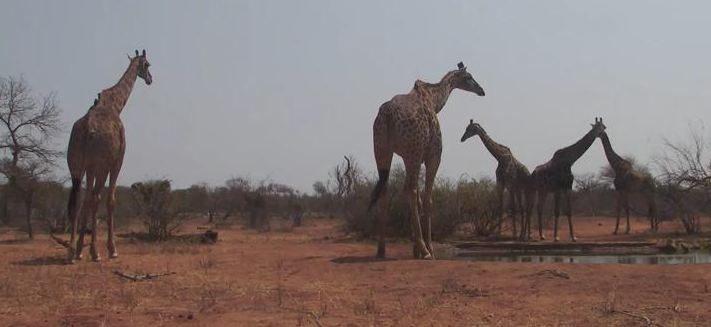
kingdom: Animalia
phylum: Chordata
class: Mammalia
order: Artiodactyla
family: Giraffidae
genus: Giraffa
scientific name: Giraffa giraffa
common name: Southern giraffe
